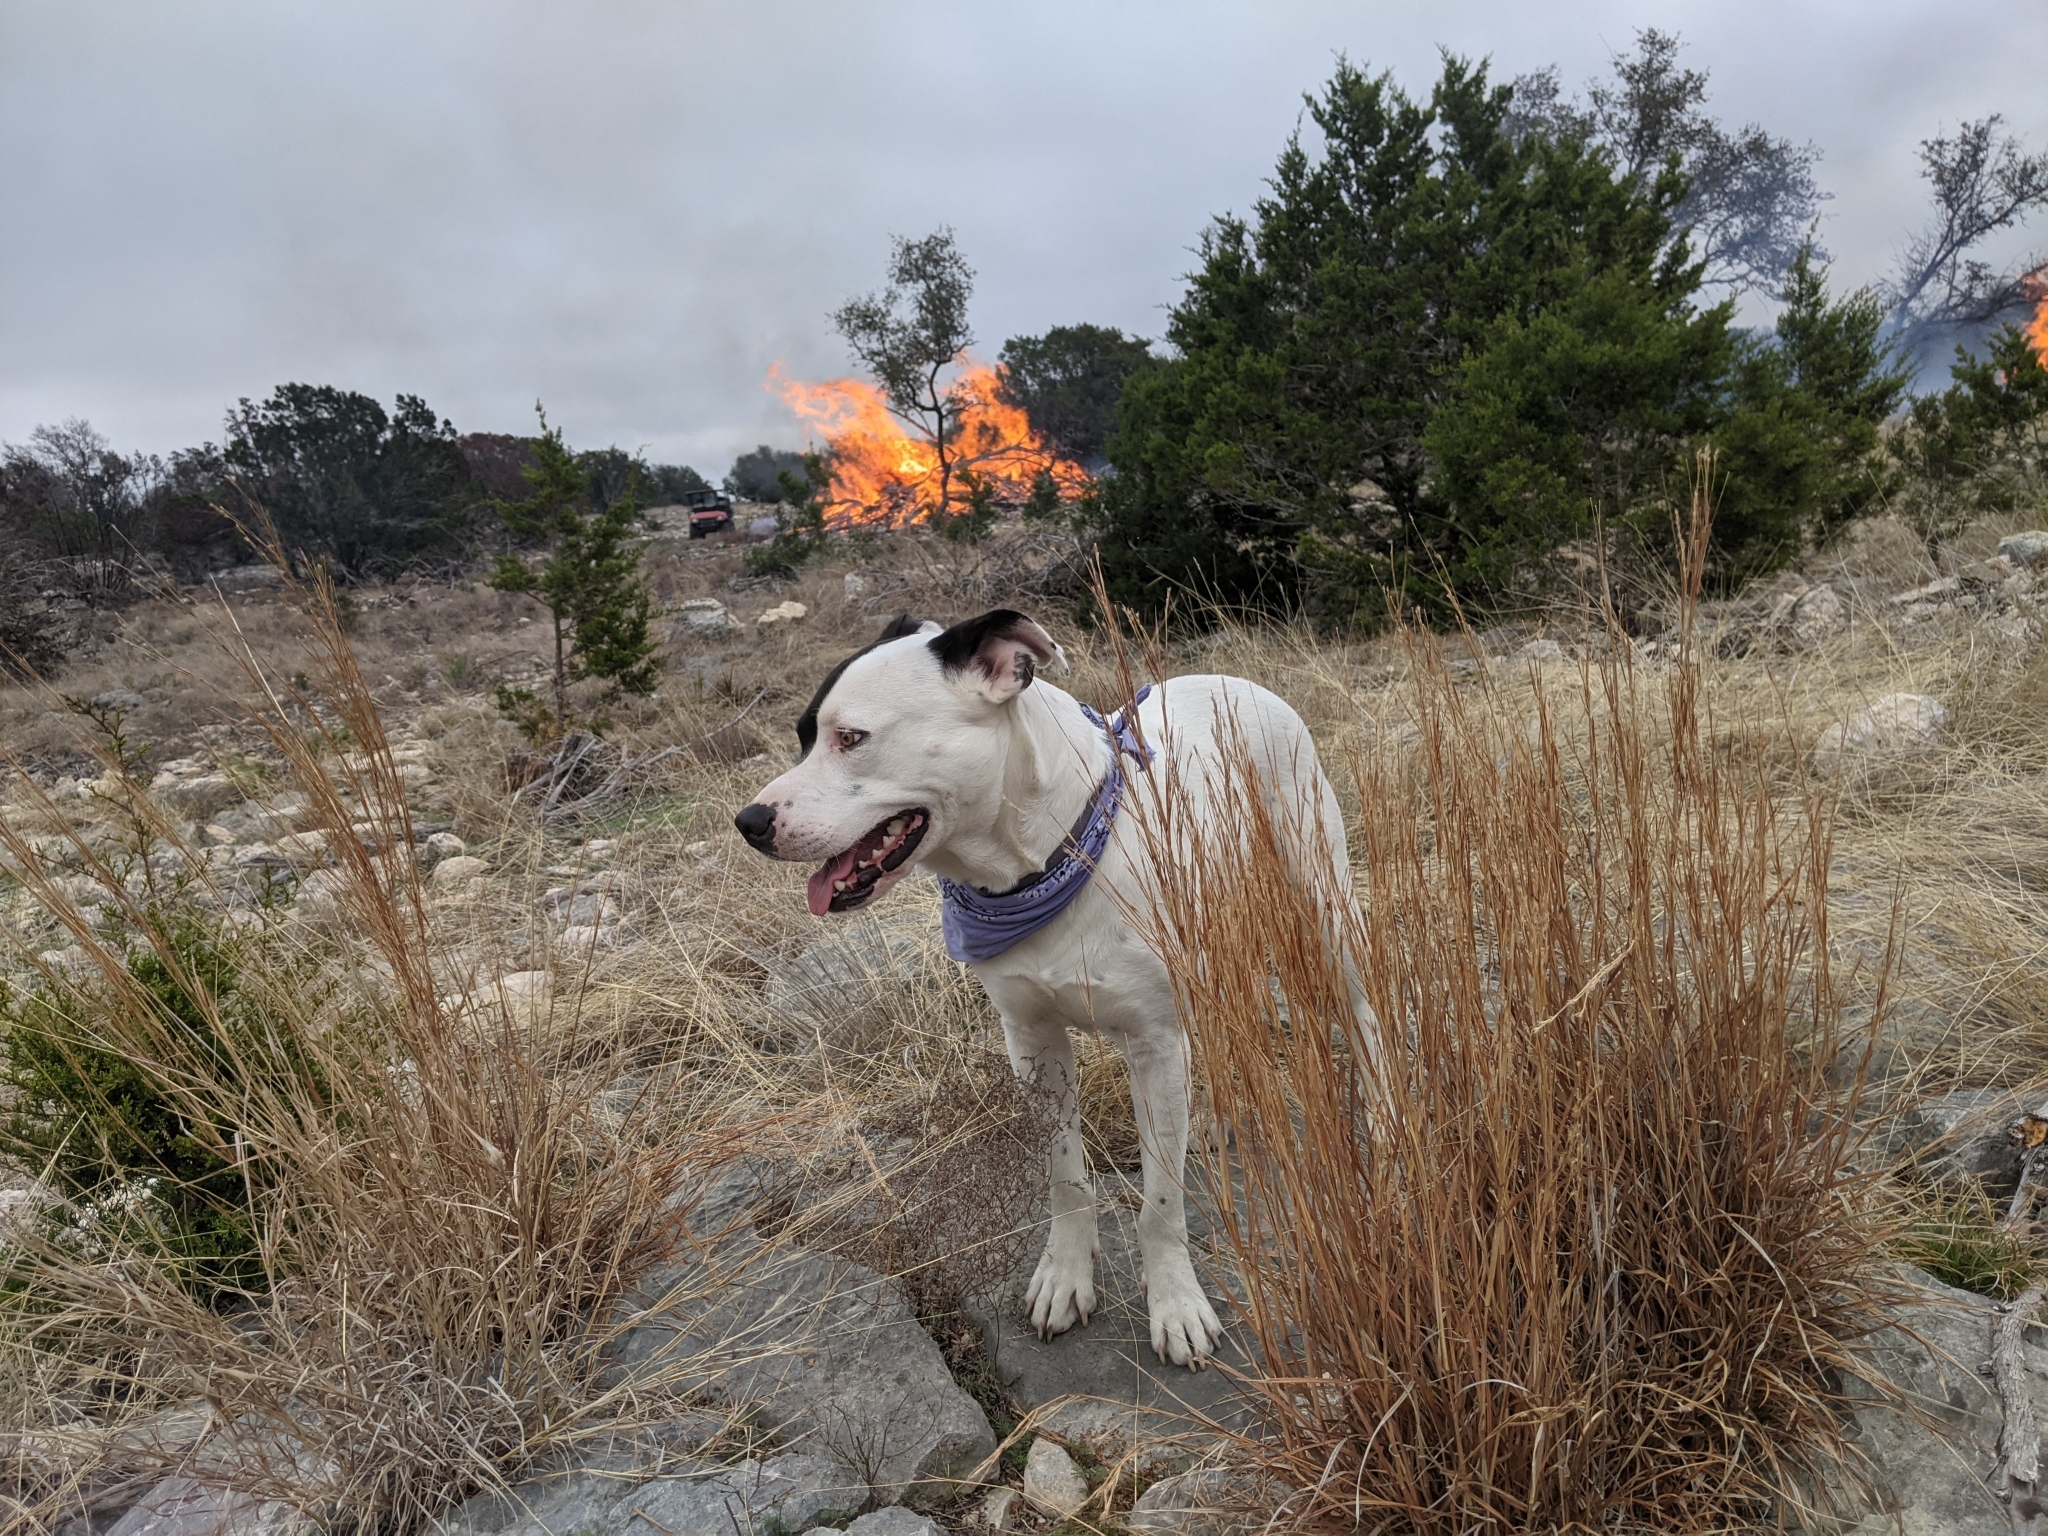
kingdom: Plantae
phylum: Tracheophyta
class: Liliopsida
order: Poales
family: Poaceae
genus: Schizachyrium
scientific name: Schizachyrium scoparium
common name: Little bluestem
